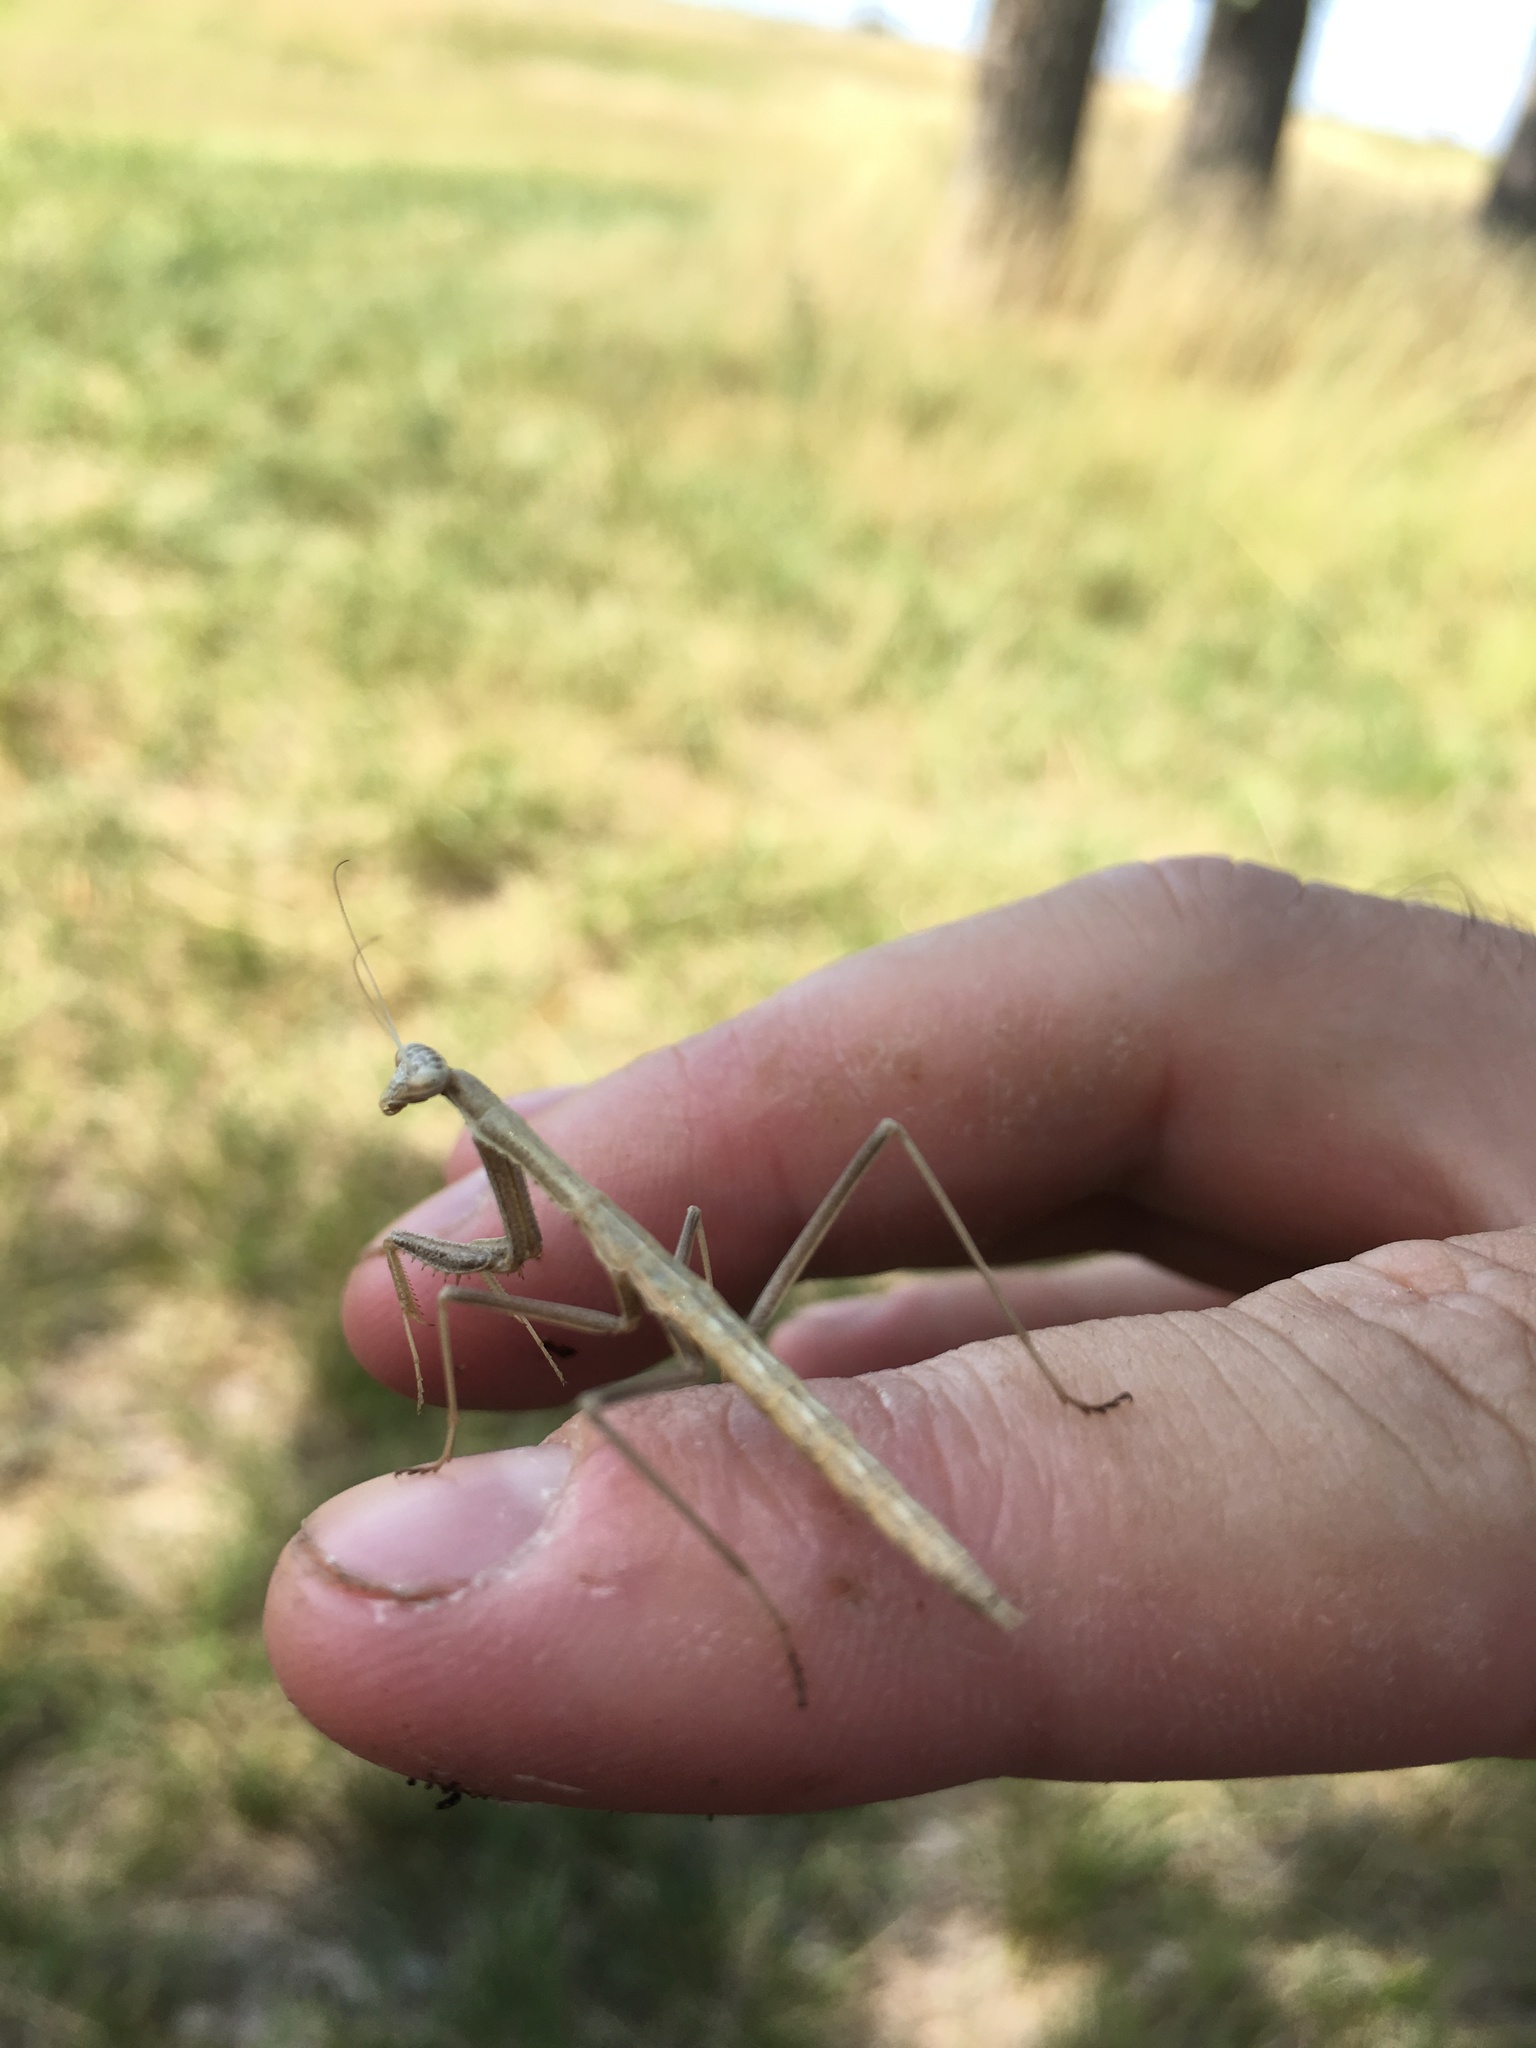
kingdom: Animalia
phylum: Arthropoda
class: Insecta
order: Mantodea
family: Coptopterygidae
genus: Coptopteryx
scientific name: Coptopteryx gayi
